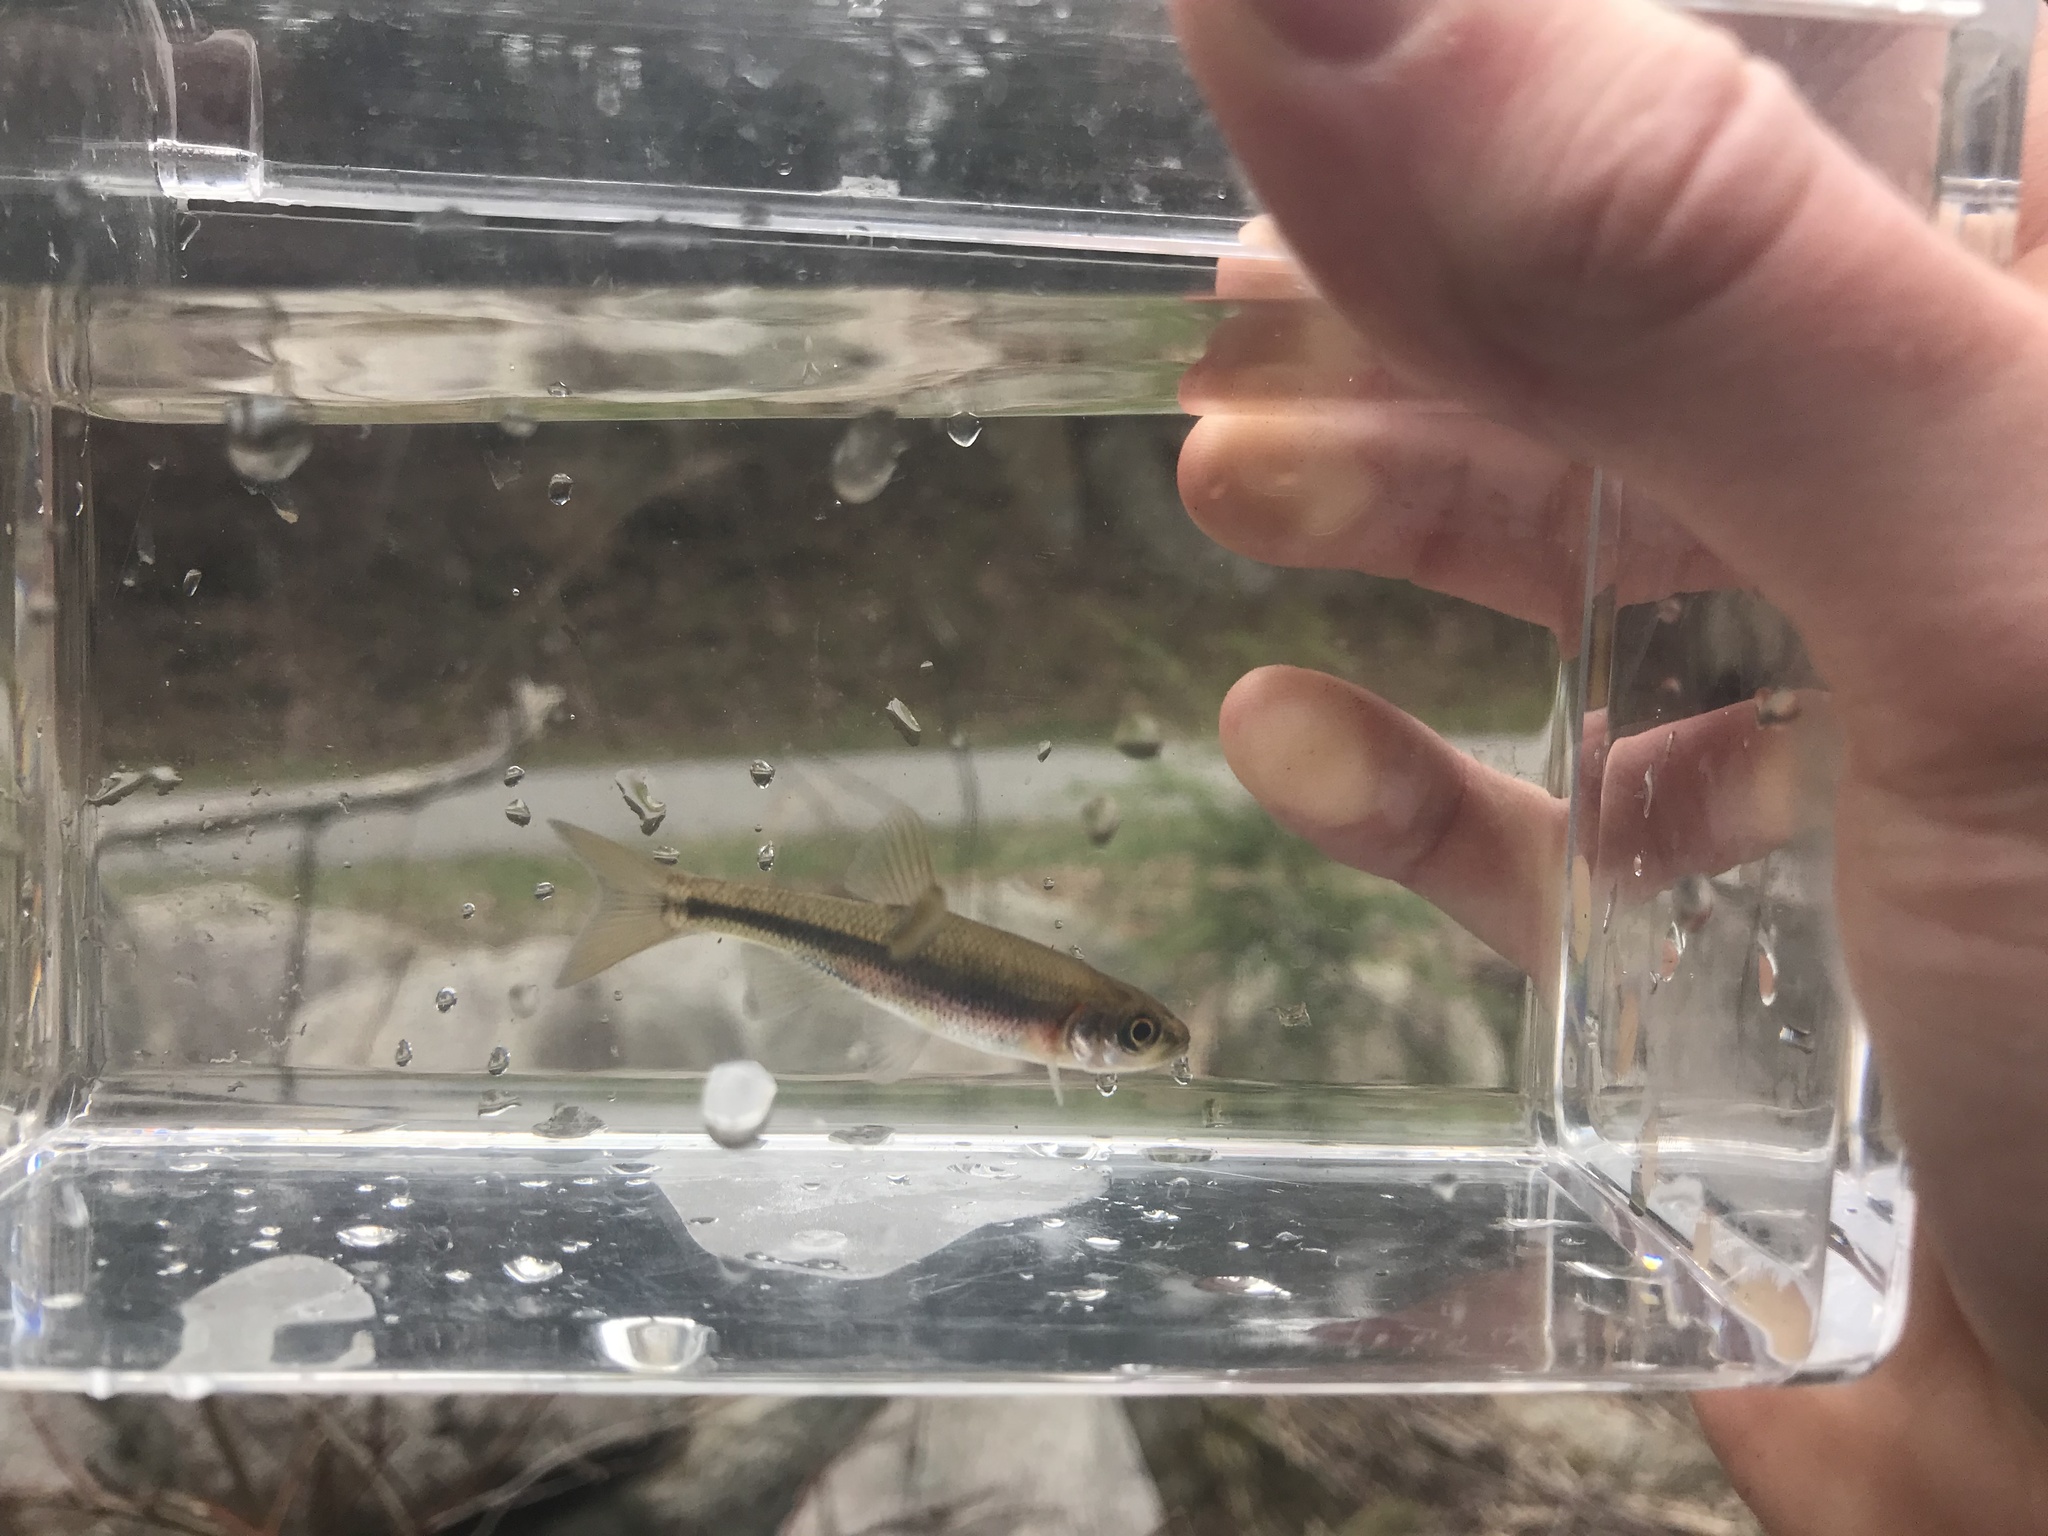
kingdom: Animalia
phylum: Chordata
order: Cypriniformes
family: Cyprinidae
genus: Clinostomus
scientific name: Clinostomus funduloides
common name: Rosyside dace
